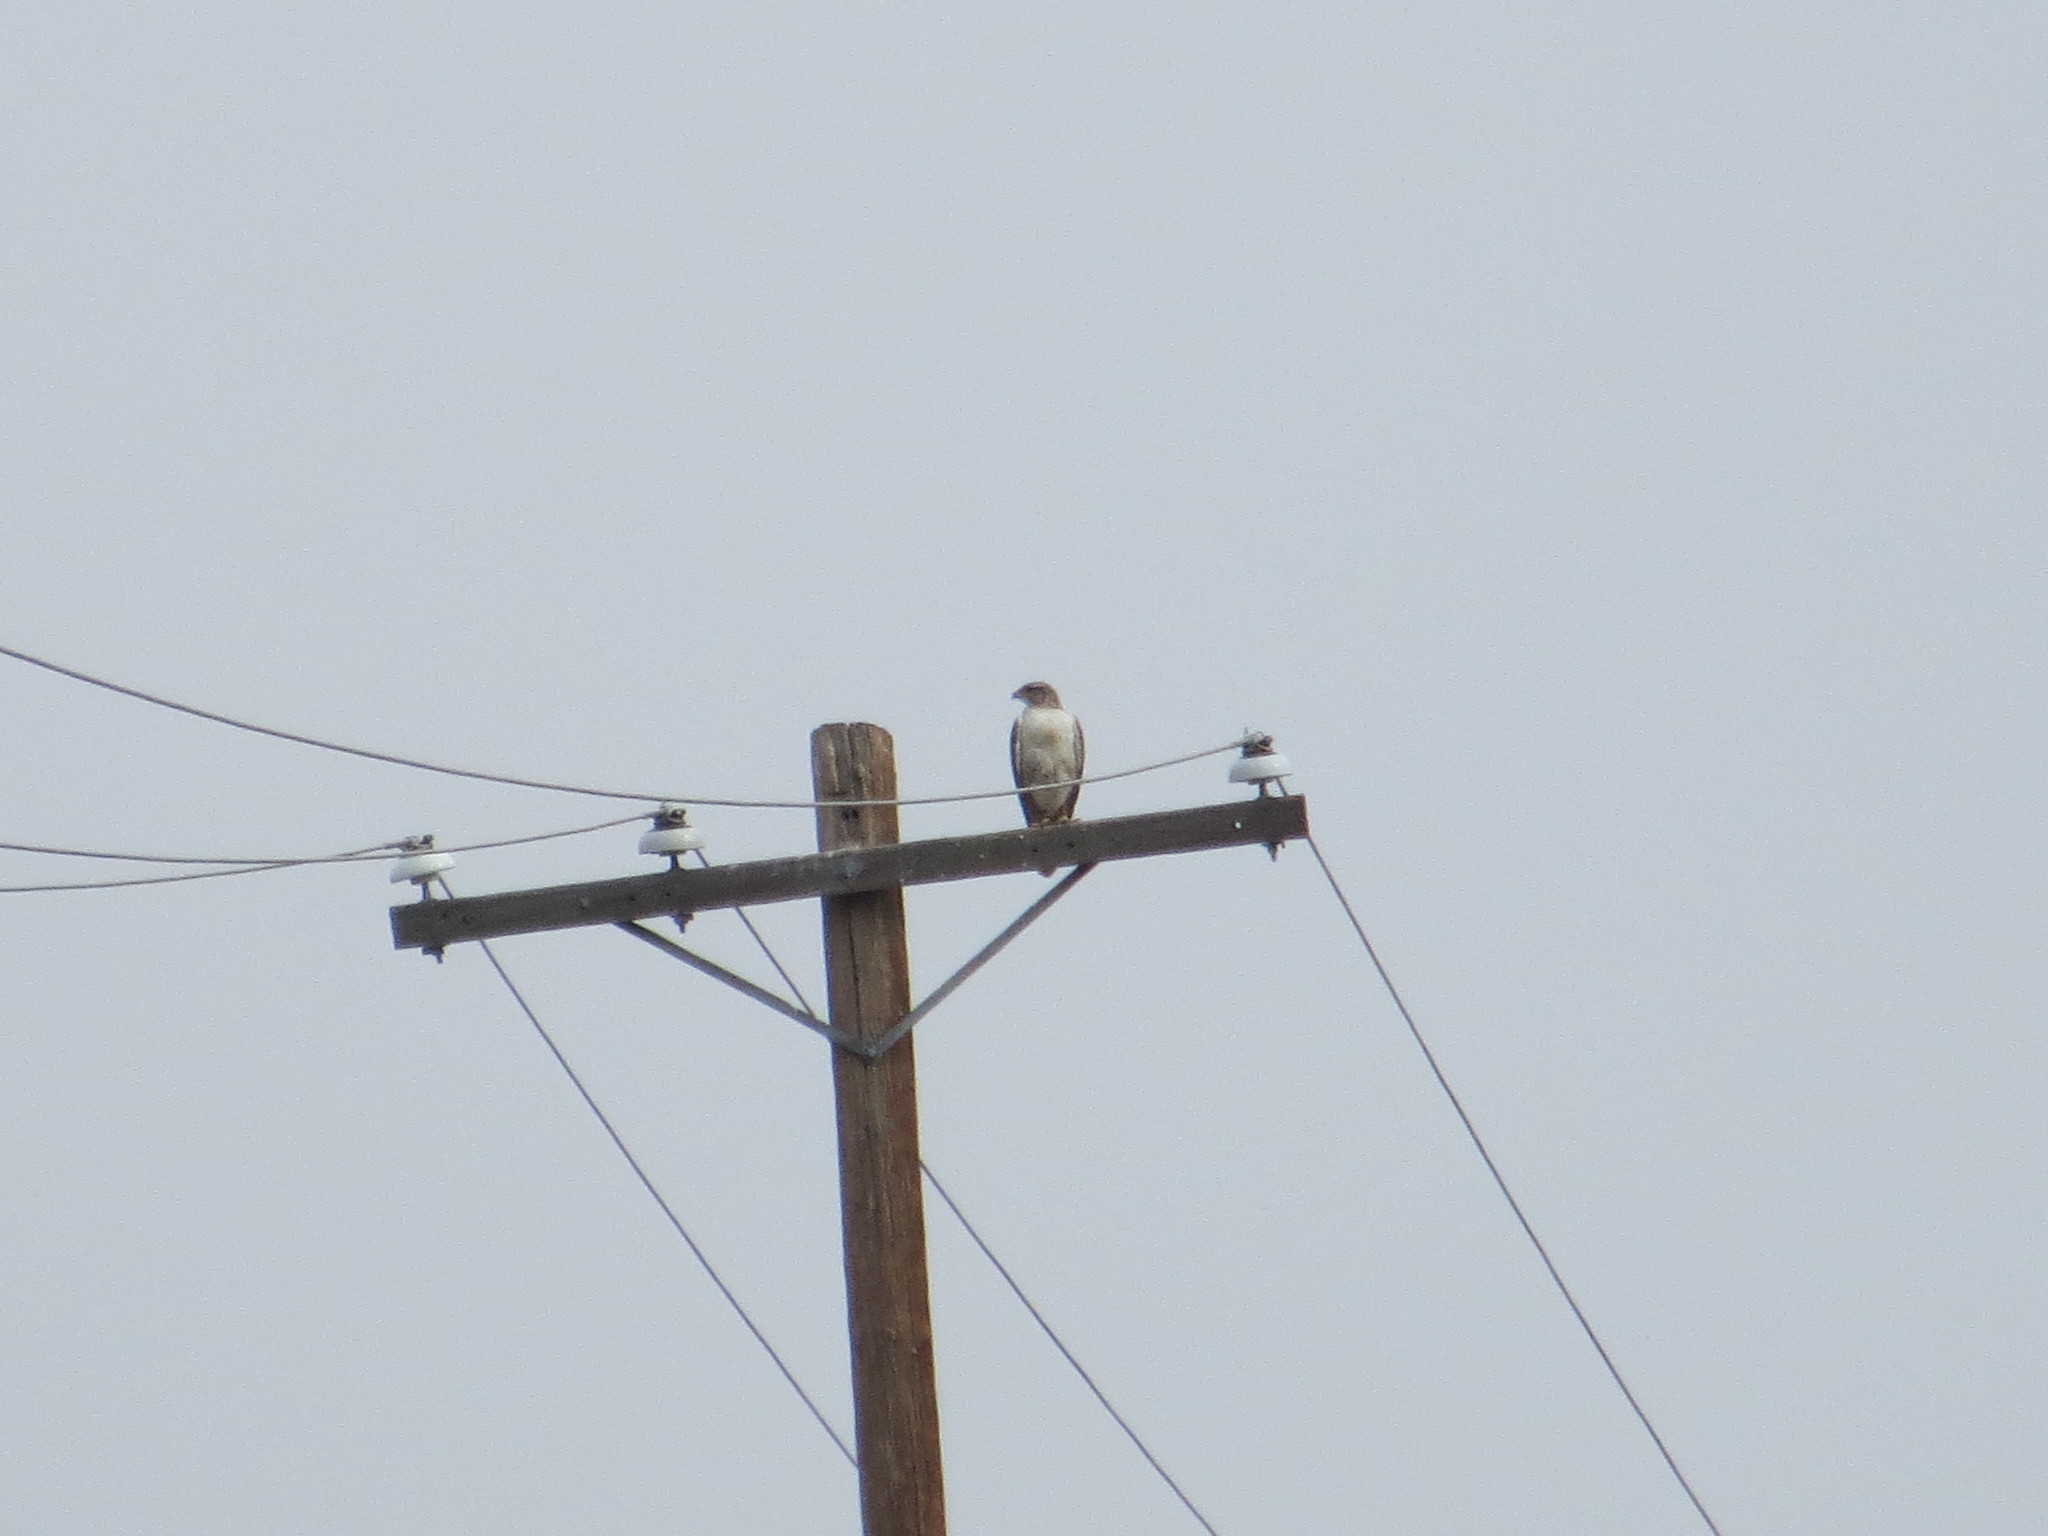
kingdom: Animalia
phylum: Chordata
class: Aves
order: Accipitriformes
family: Accipitridae
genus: Buteo
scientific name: Buteo regalis
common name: Ferruginous hawk
